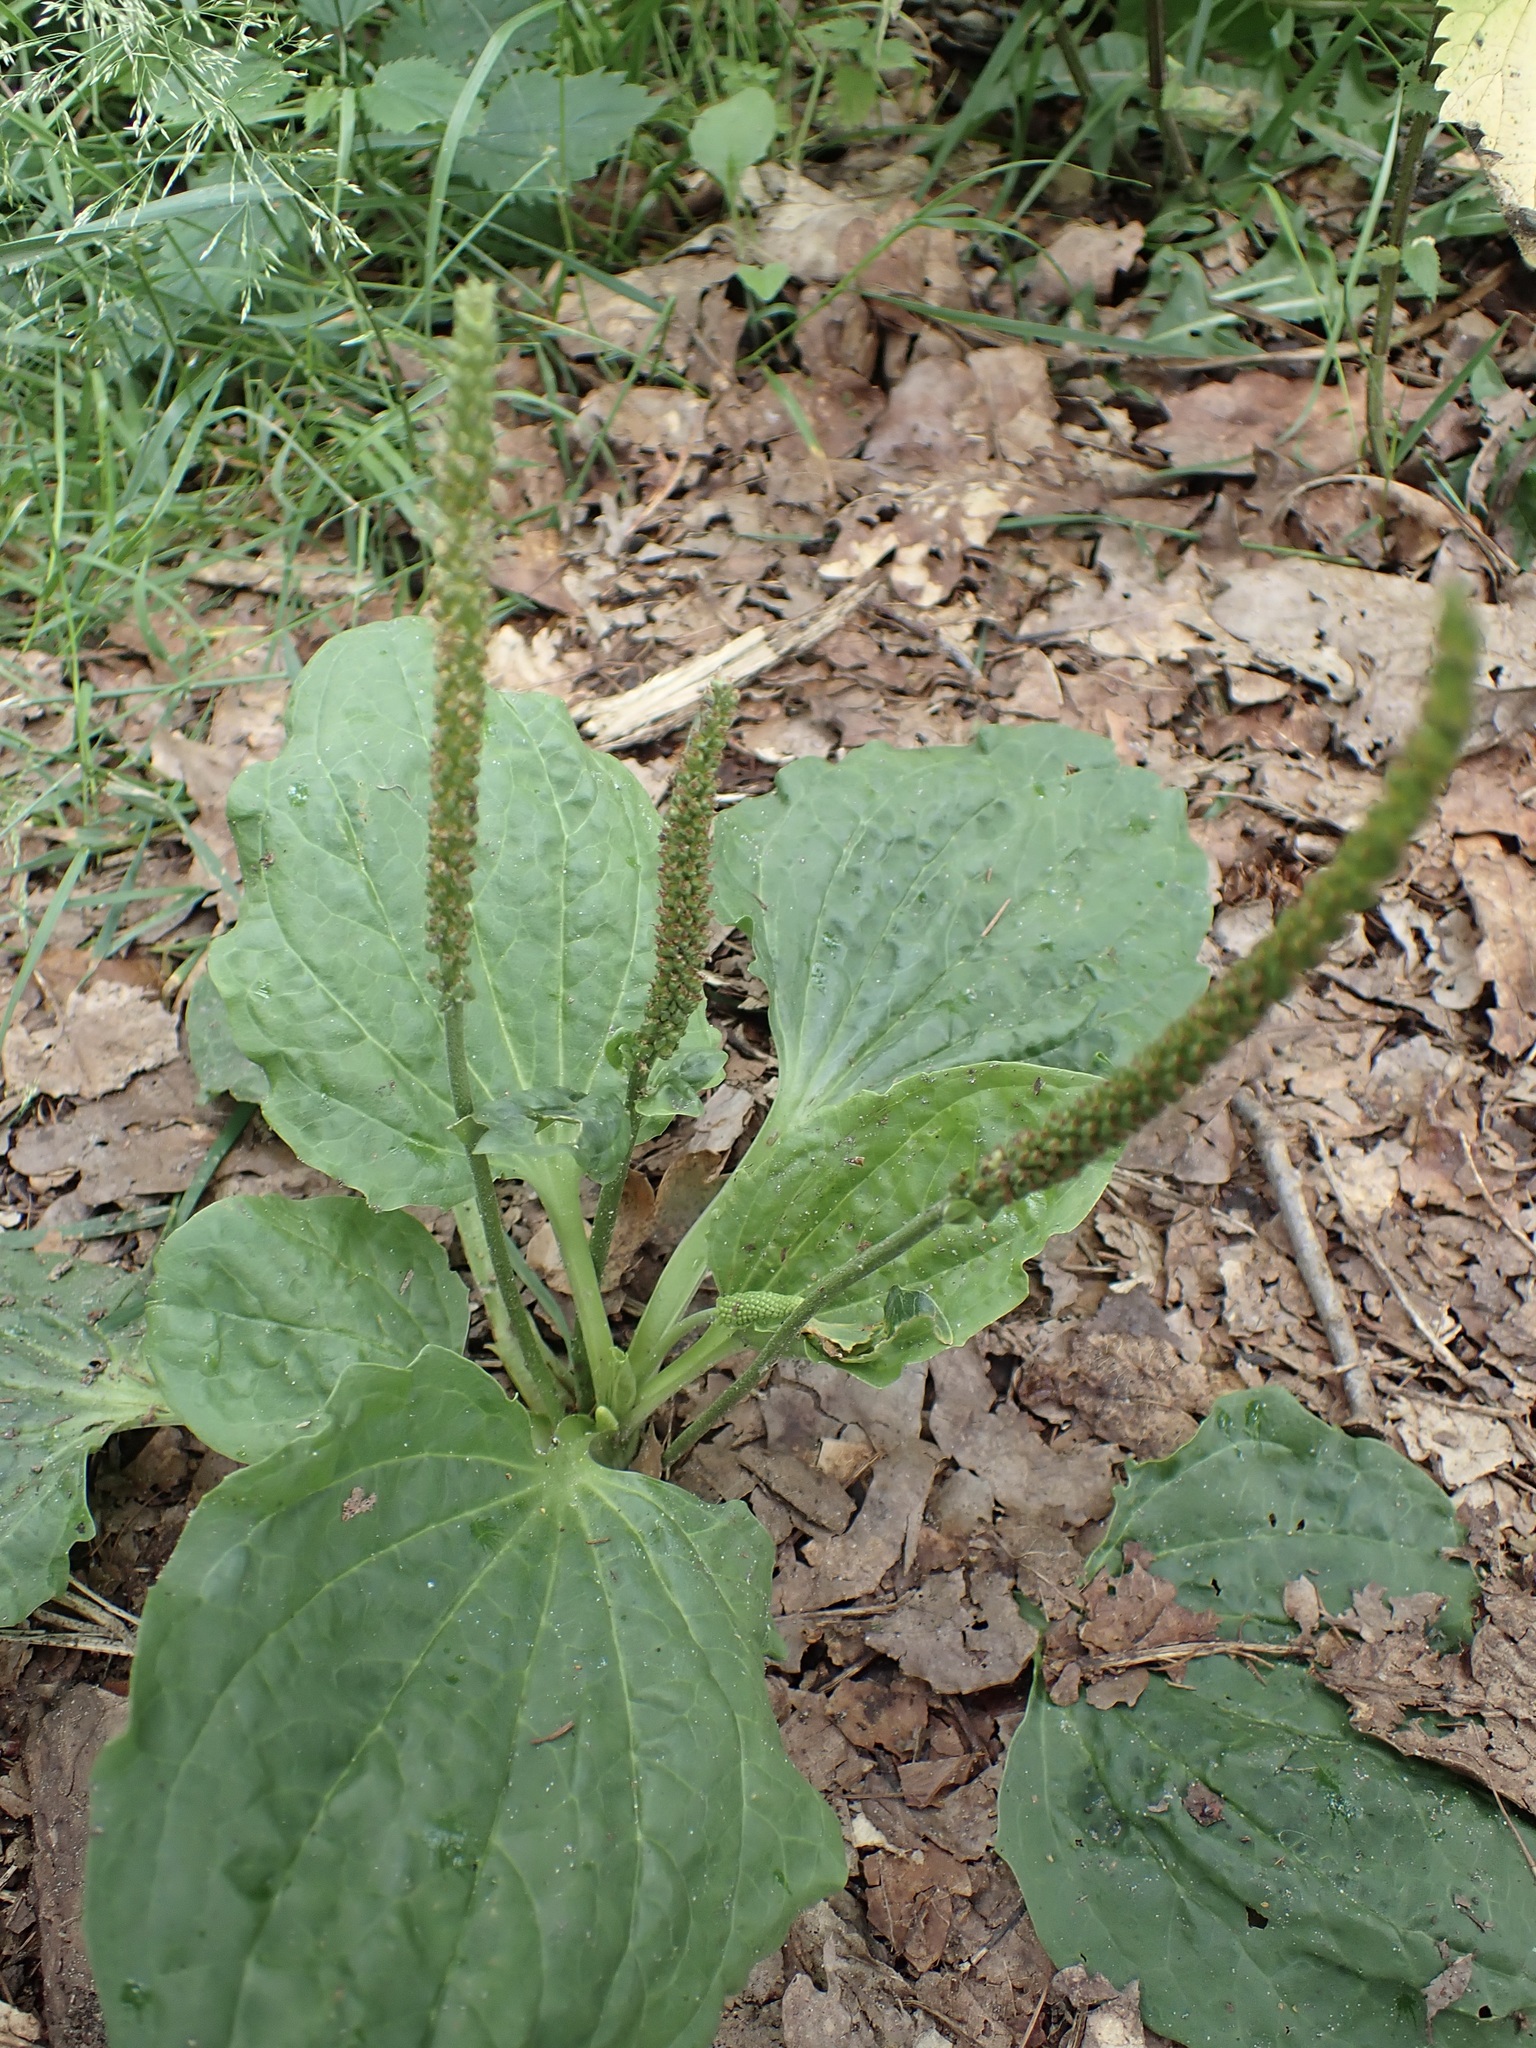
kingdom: Plantae
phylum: Tracheophyta
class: Magnoliopsida
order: Lamiales
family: Plantaginaceae
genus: Plantago
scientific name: Plantago major
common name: Common plantain
